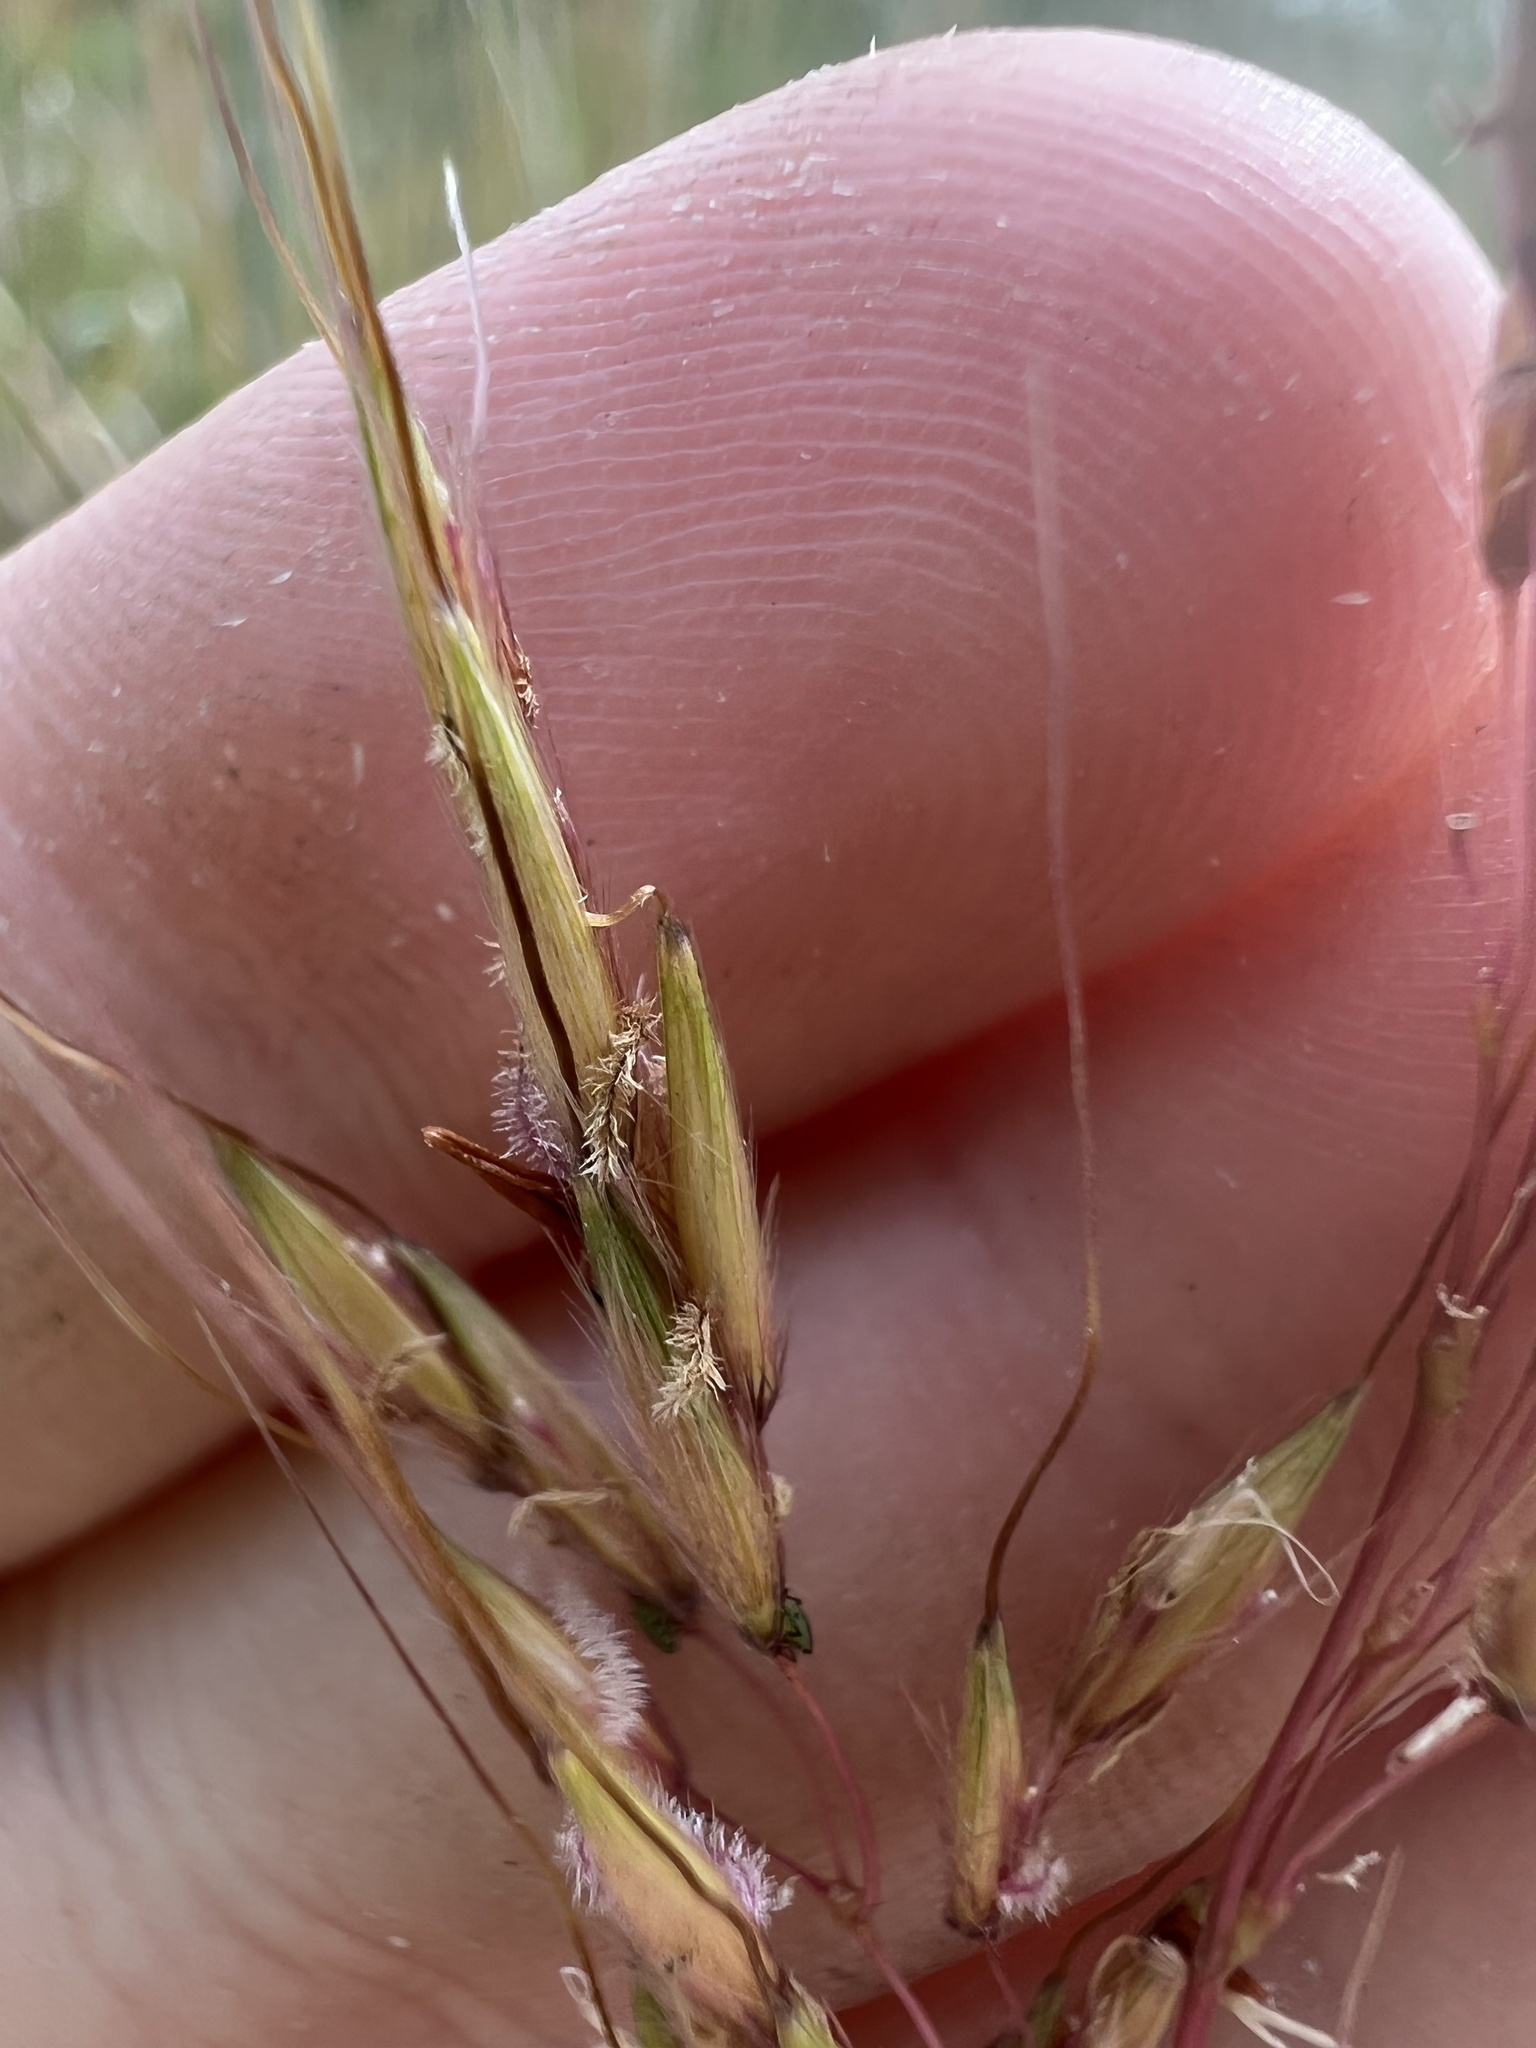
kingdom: Plantae
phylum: Tracheophyta
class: Liliopsida
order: Poales
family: Poaceae
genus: Sorghastrum
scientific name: Sorghastrum nutans
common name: Indian grass
